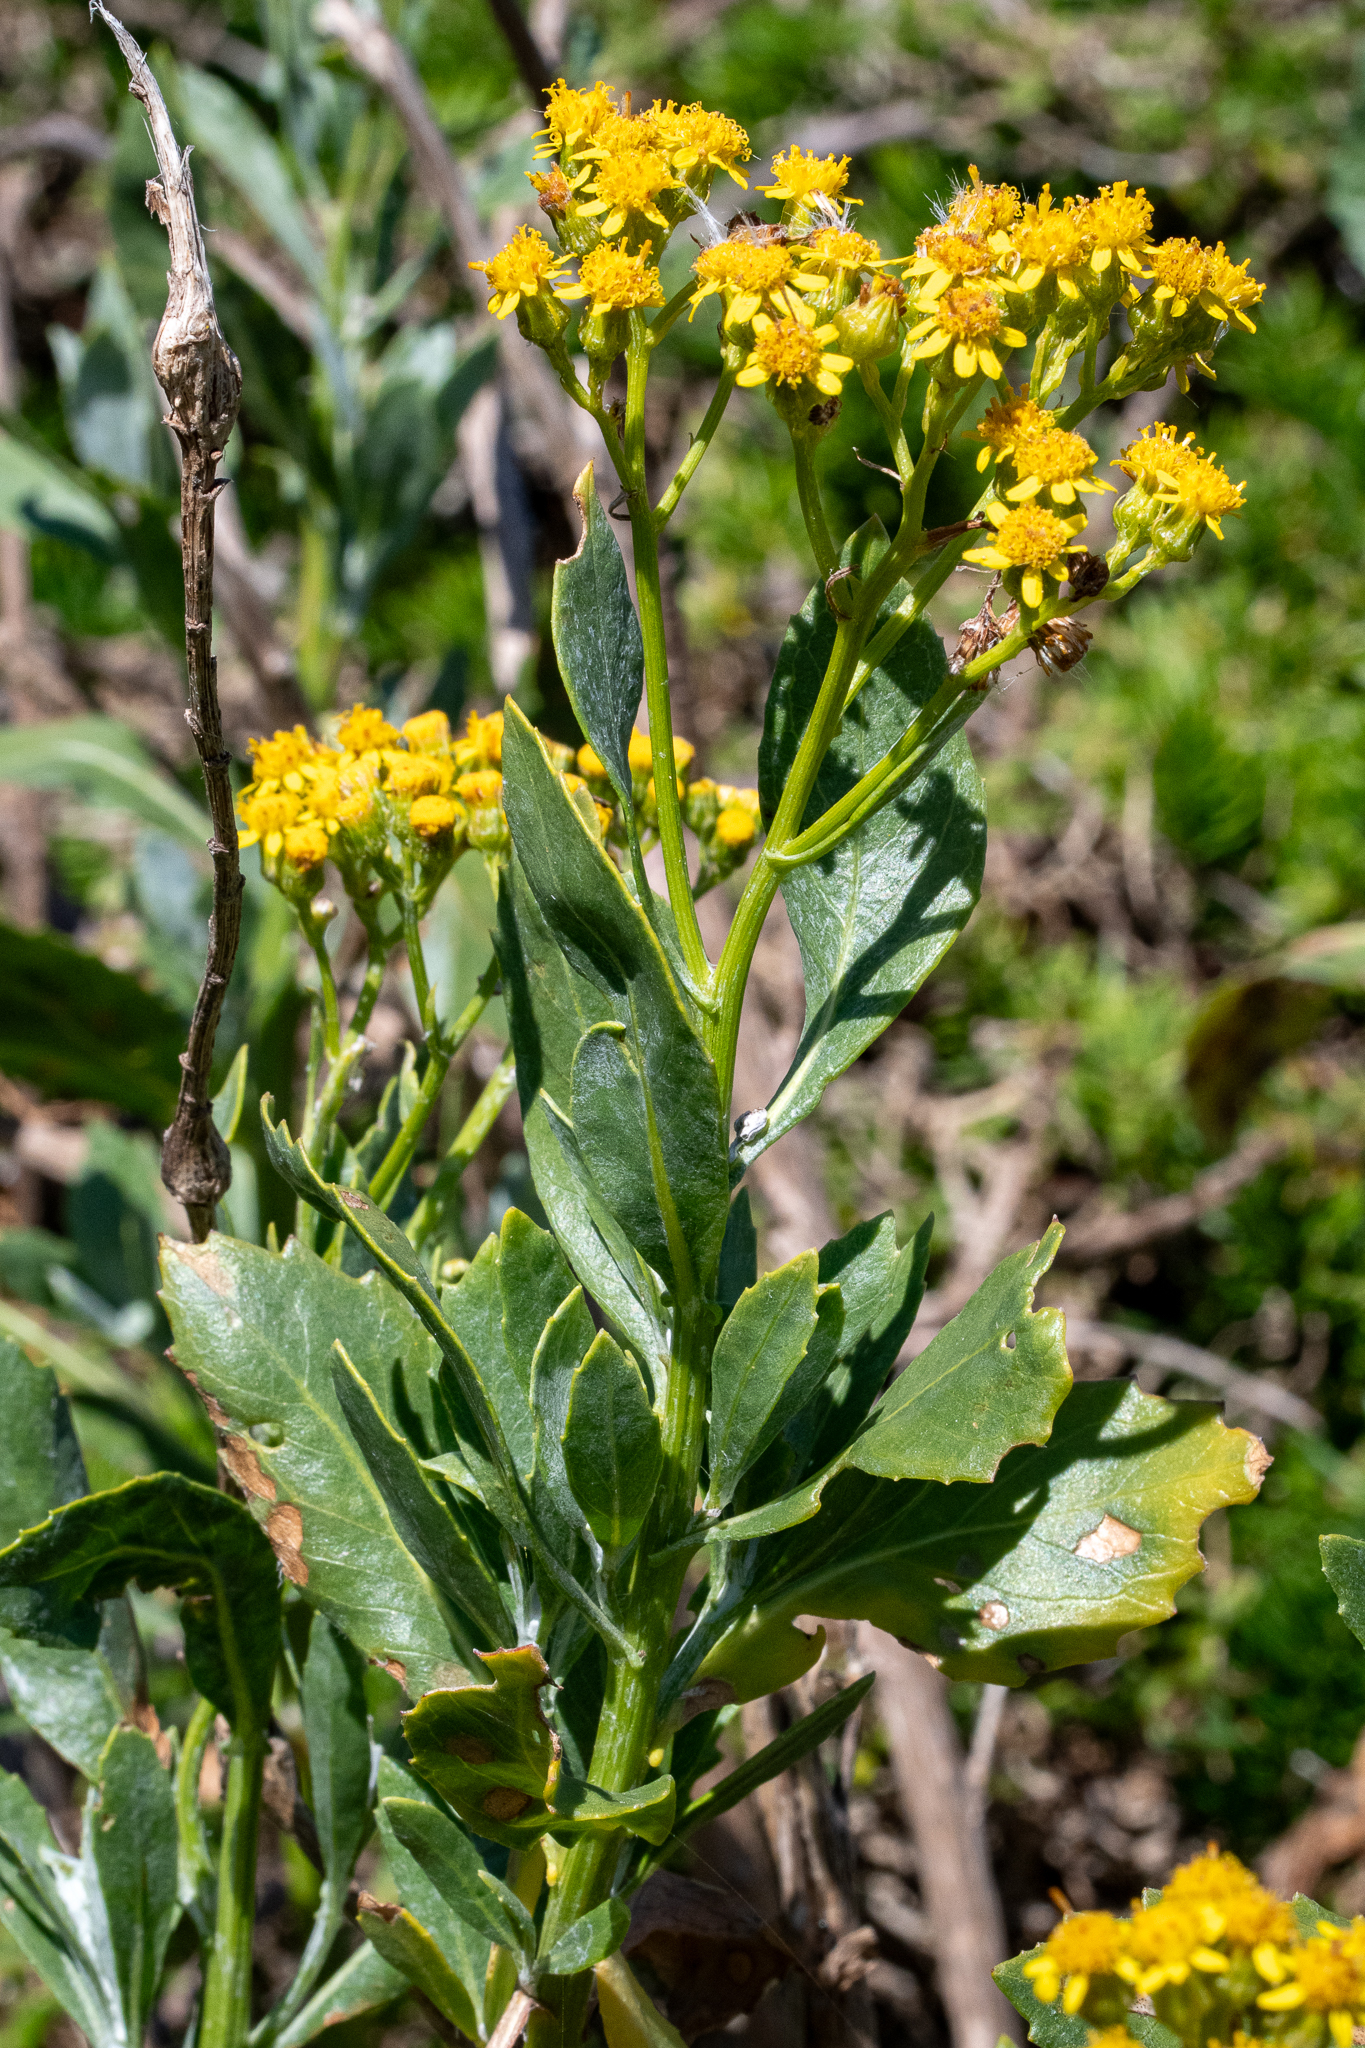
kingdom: Plantae
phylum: Tracheophyta
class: Magnoliopsida
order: Asterales
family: Asteraceae
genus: Senecio
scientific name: Senecio halimifolius
